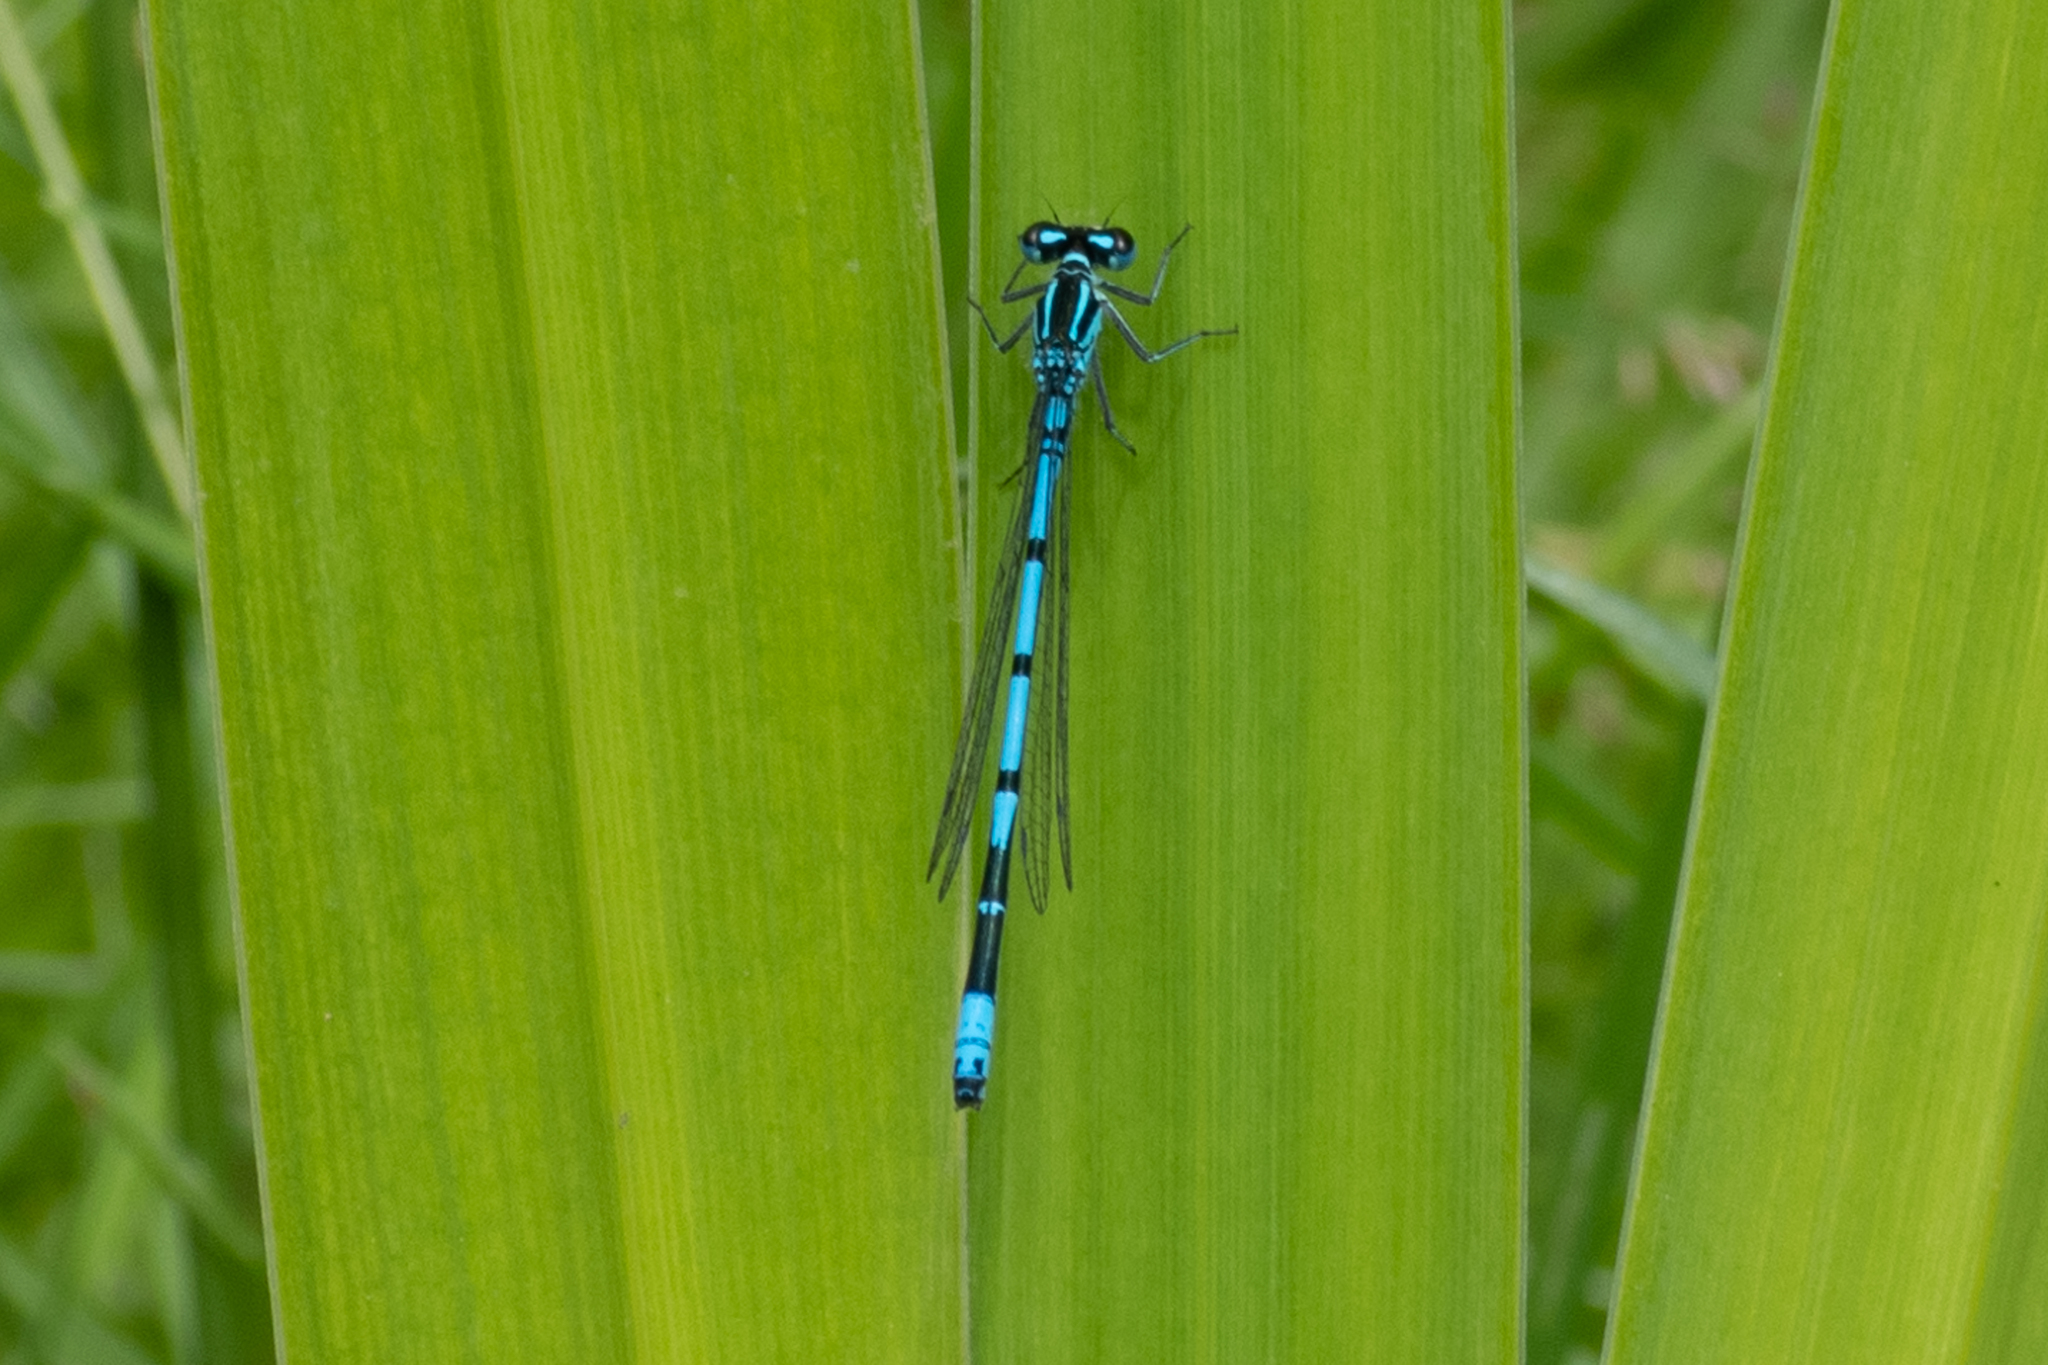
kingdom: Animalia
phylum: Arthropoda
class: Insecta
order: Odonata
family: Coenagrionidae
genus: Coenagrion
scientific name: Coenagrion puella
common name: Azure damselfly
